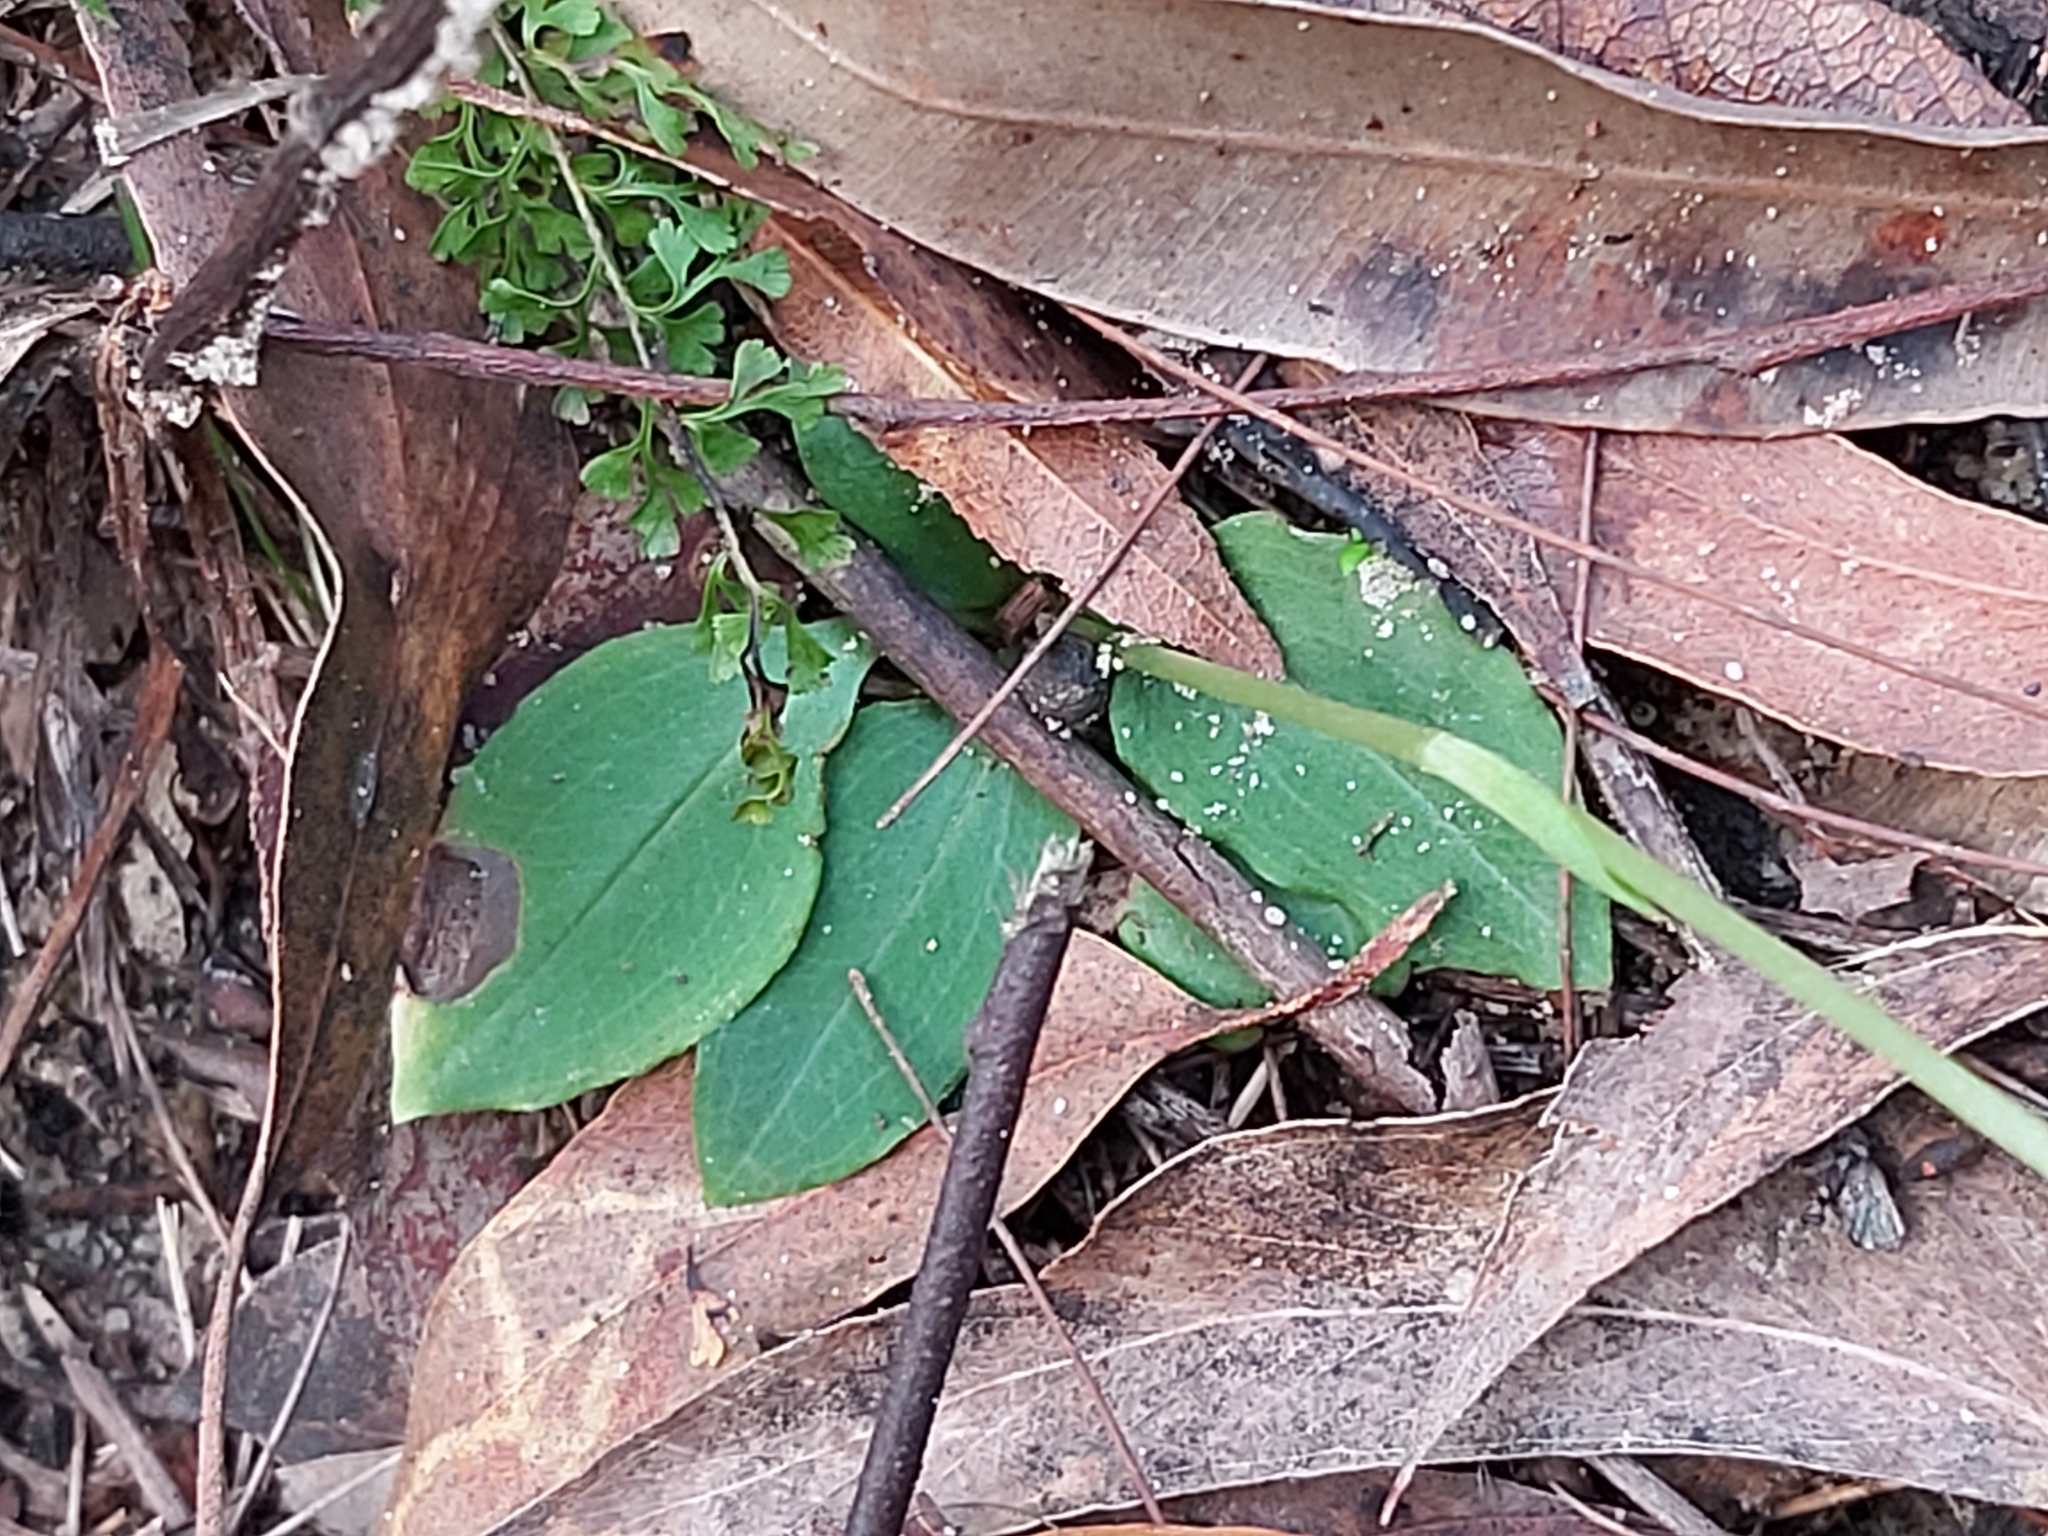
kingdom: Plantae
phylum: Tracheophyta
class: Liliopsida
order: Asparagales
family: Orchidaceae
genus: Pterostylis
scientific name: Pterostylis acuminata
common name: Pointed greenhood
